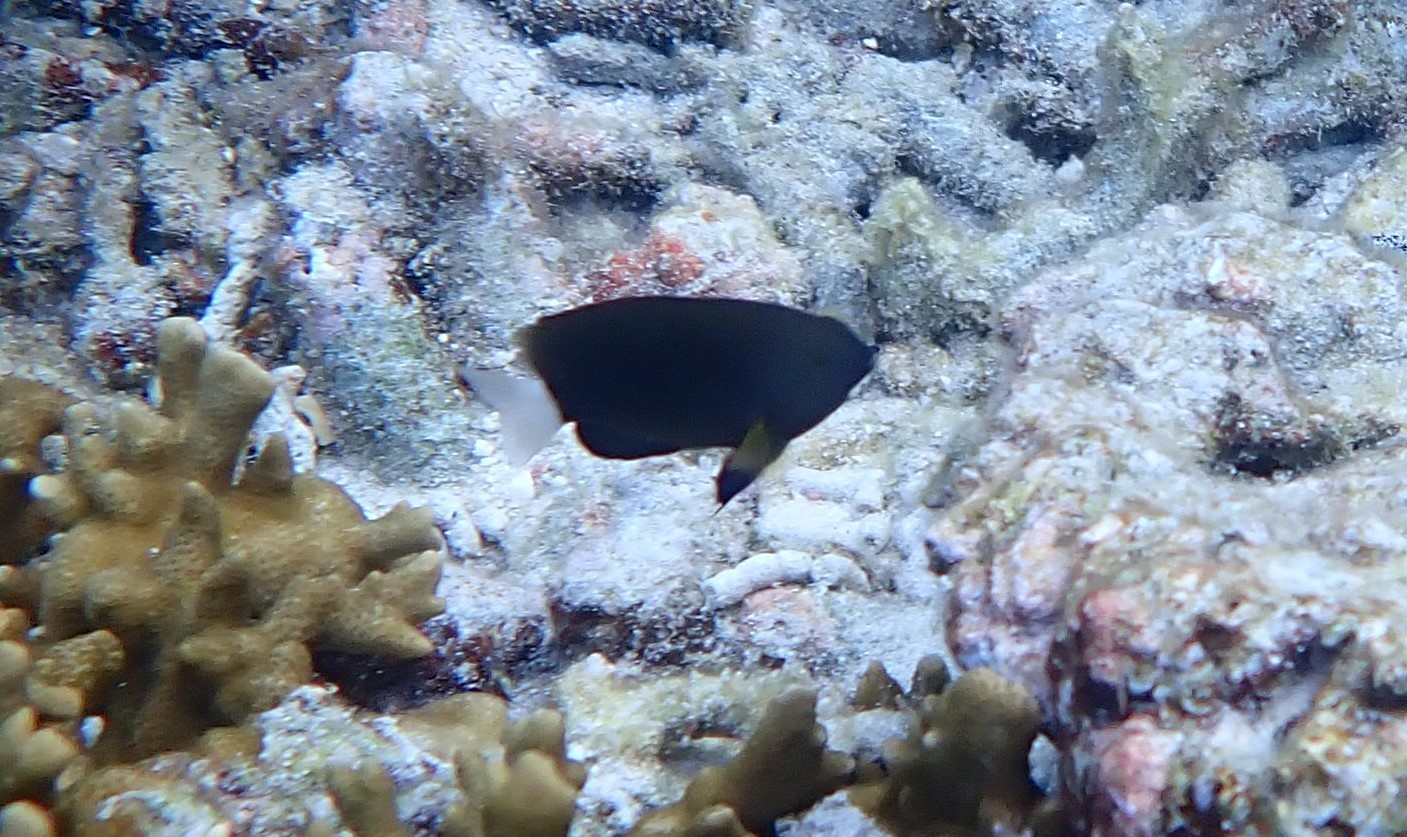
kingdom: Animalia
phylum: Chordata
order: Perciformes
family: Pomacentridae
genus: Pomacentrus
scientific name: Pomacentrus chrysurus
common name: White-tail damsel
